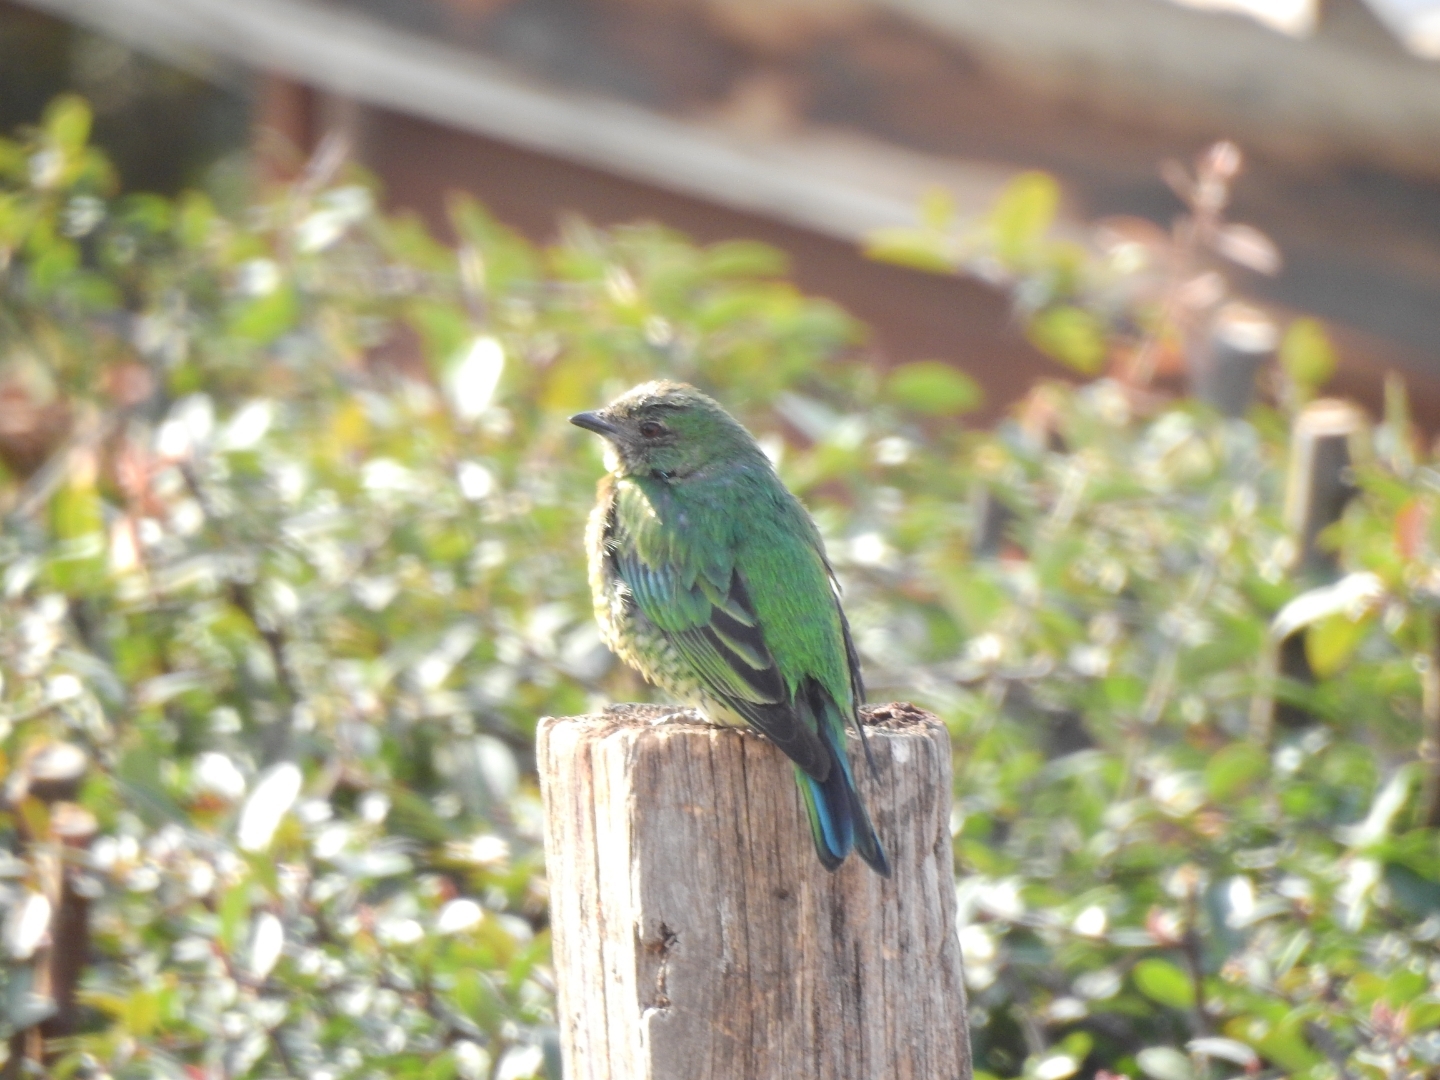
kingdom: Animalia
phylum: Chordata
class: Aves
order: Passeriformes
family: Thraupidae
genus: Tersina
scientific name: Tersina viridis
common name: Swallow tanager
